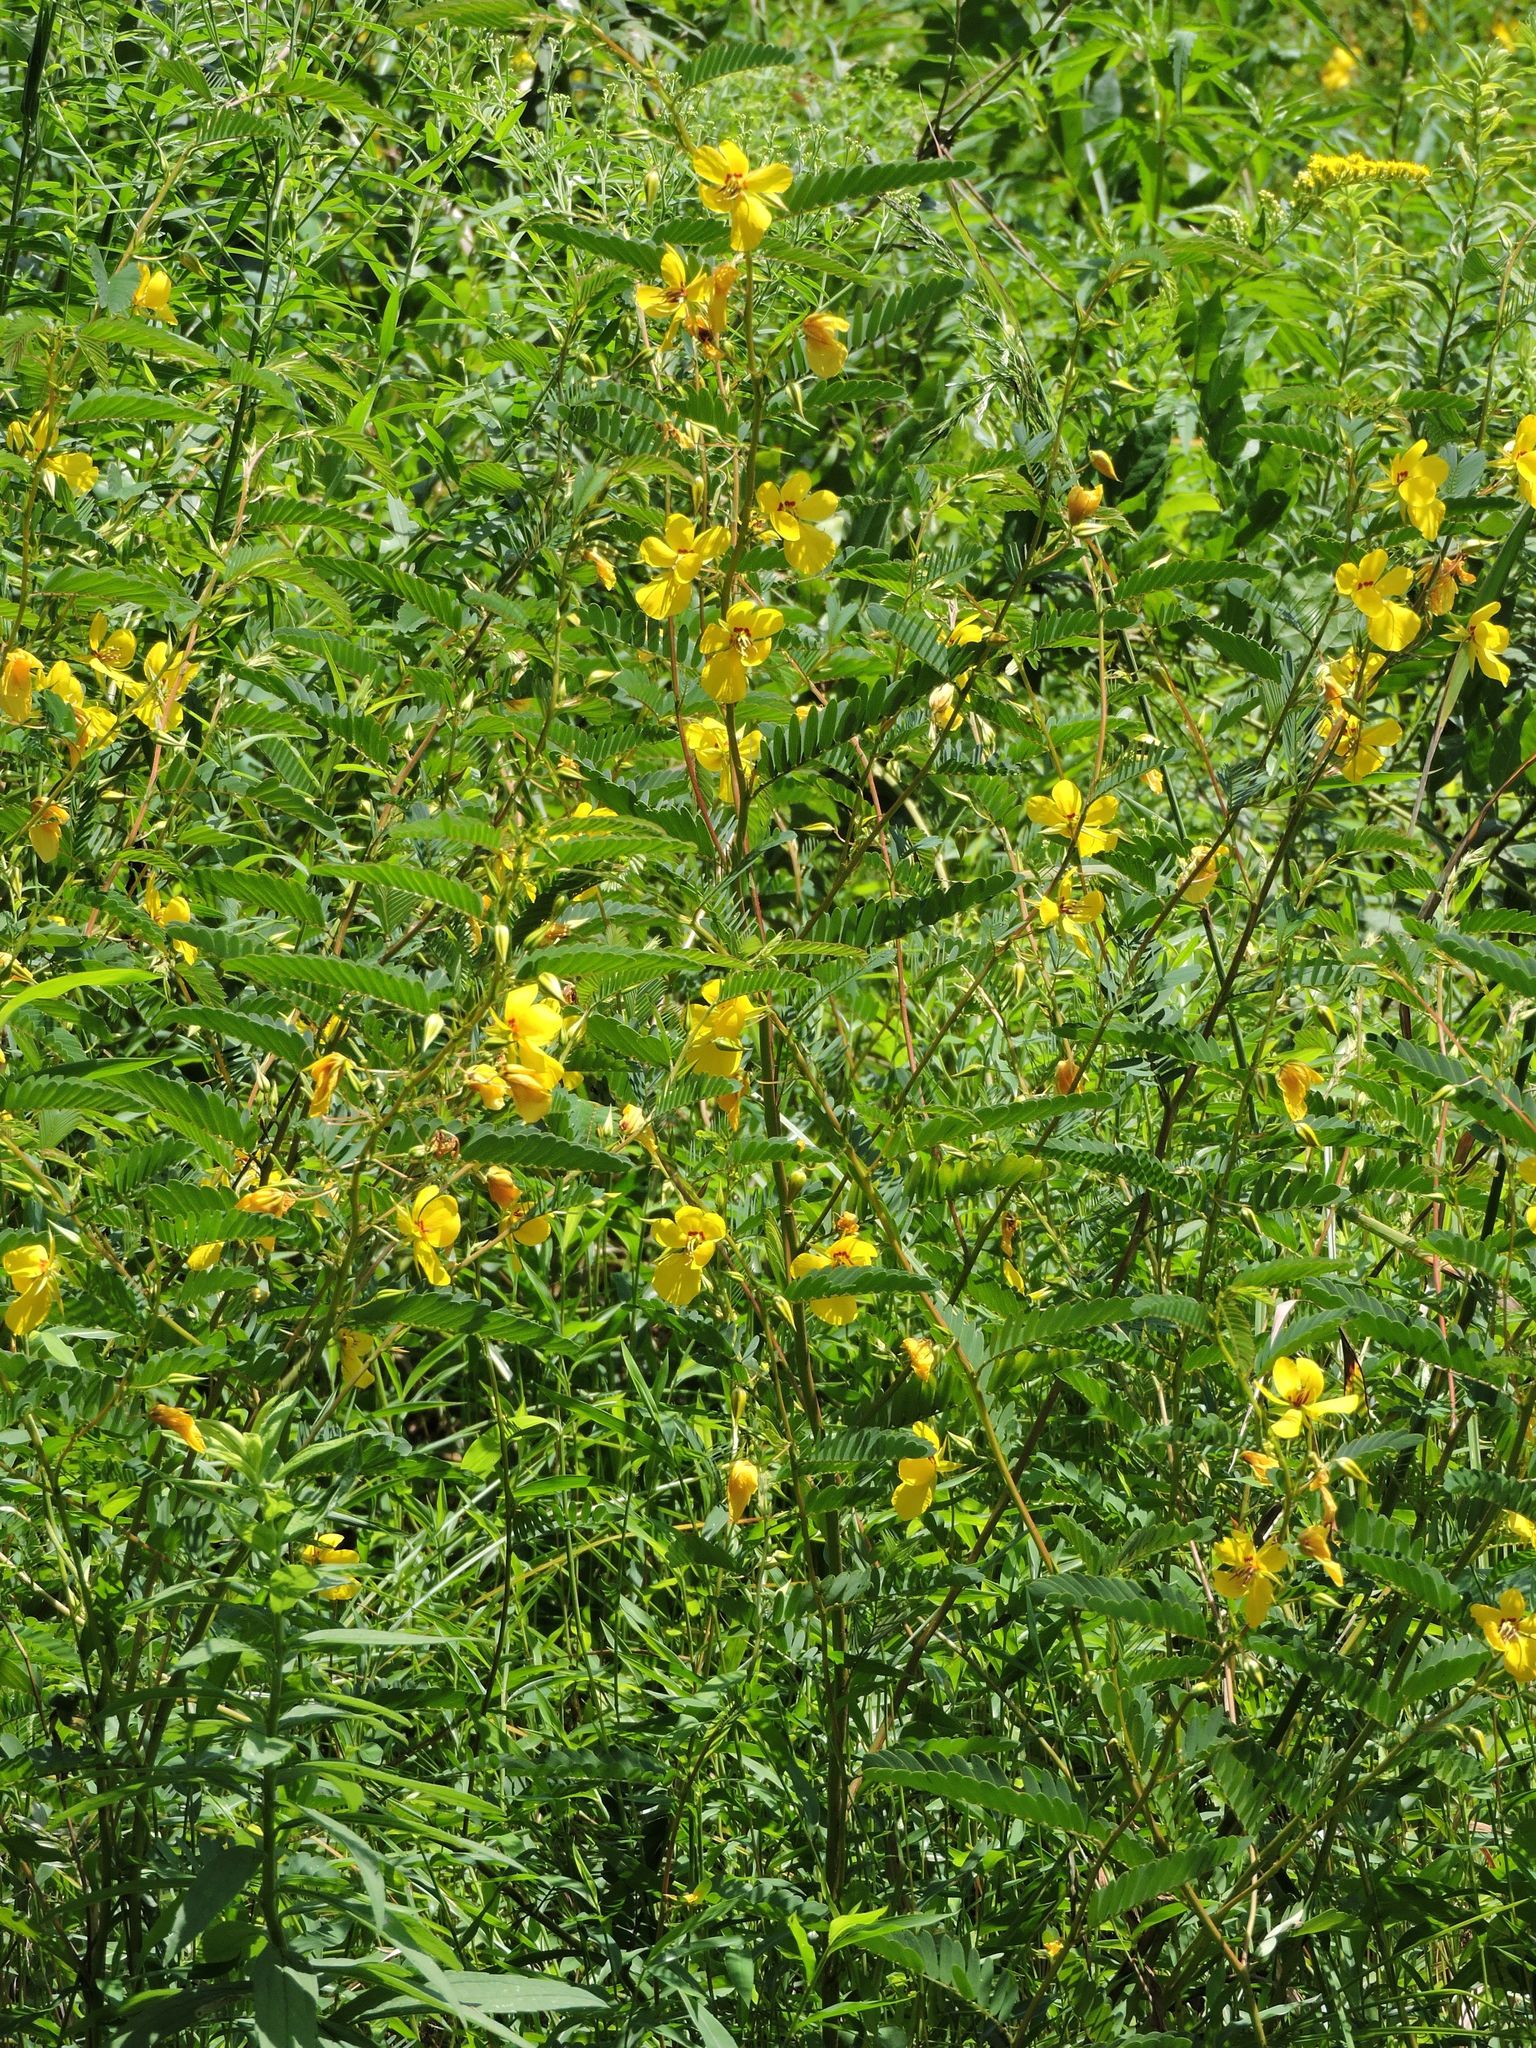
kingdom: Plantae
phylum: Tracheophyta
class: Magnoliopsida
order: Fabales
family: Fabaceae
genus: Chamaecrista
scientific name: Chamaecrista fasciculata
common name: Golden cassia
